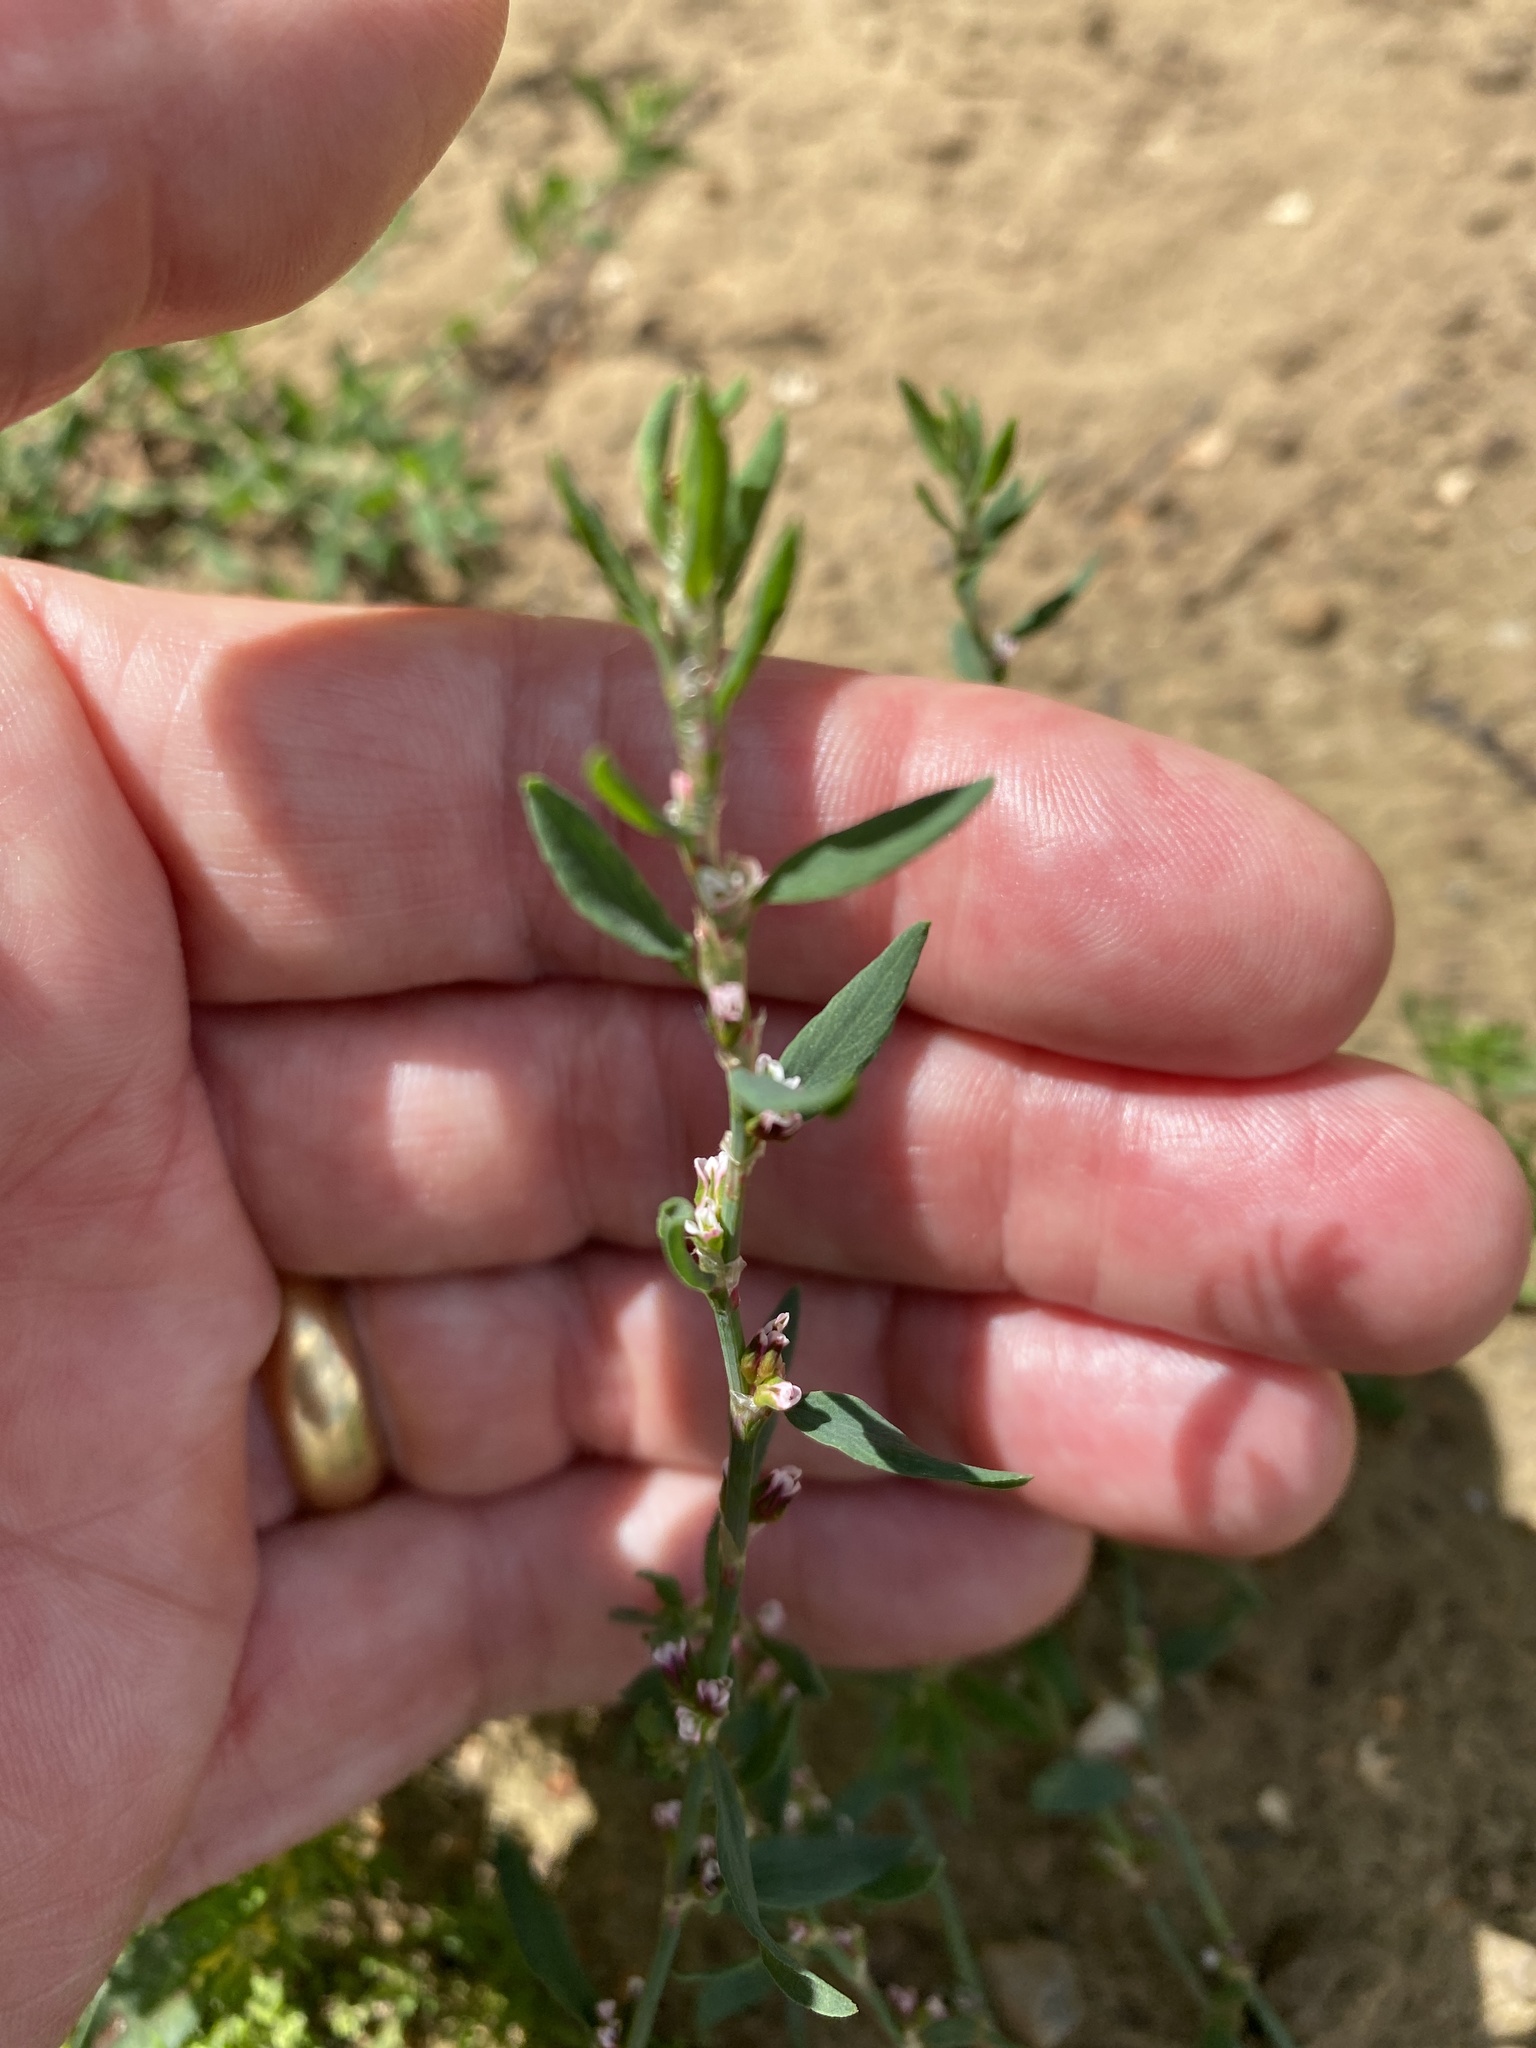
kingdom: Plantae
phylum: Tracheophyta
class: Magnoliopsida
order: Caryophyllales
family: Polygonaceae
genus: Polygonum
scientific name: Polygonum aviculare
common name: Prostrate knotweed
